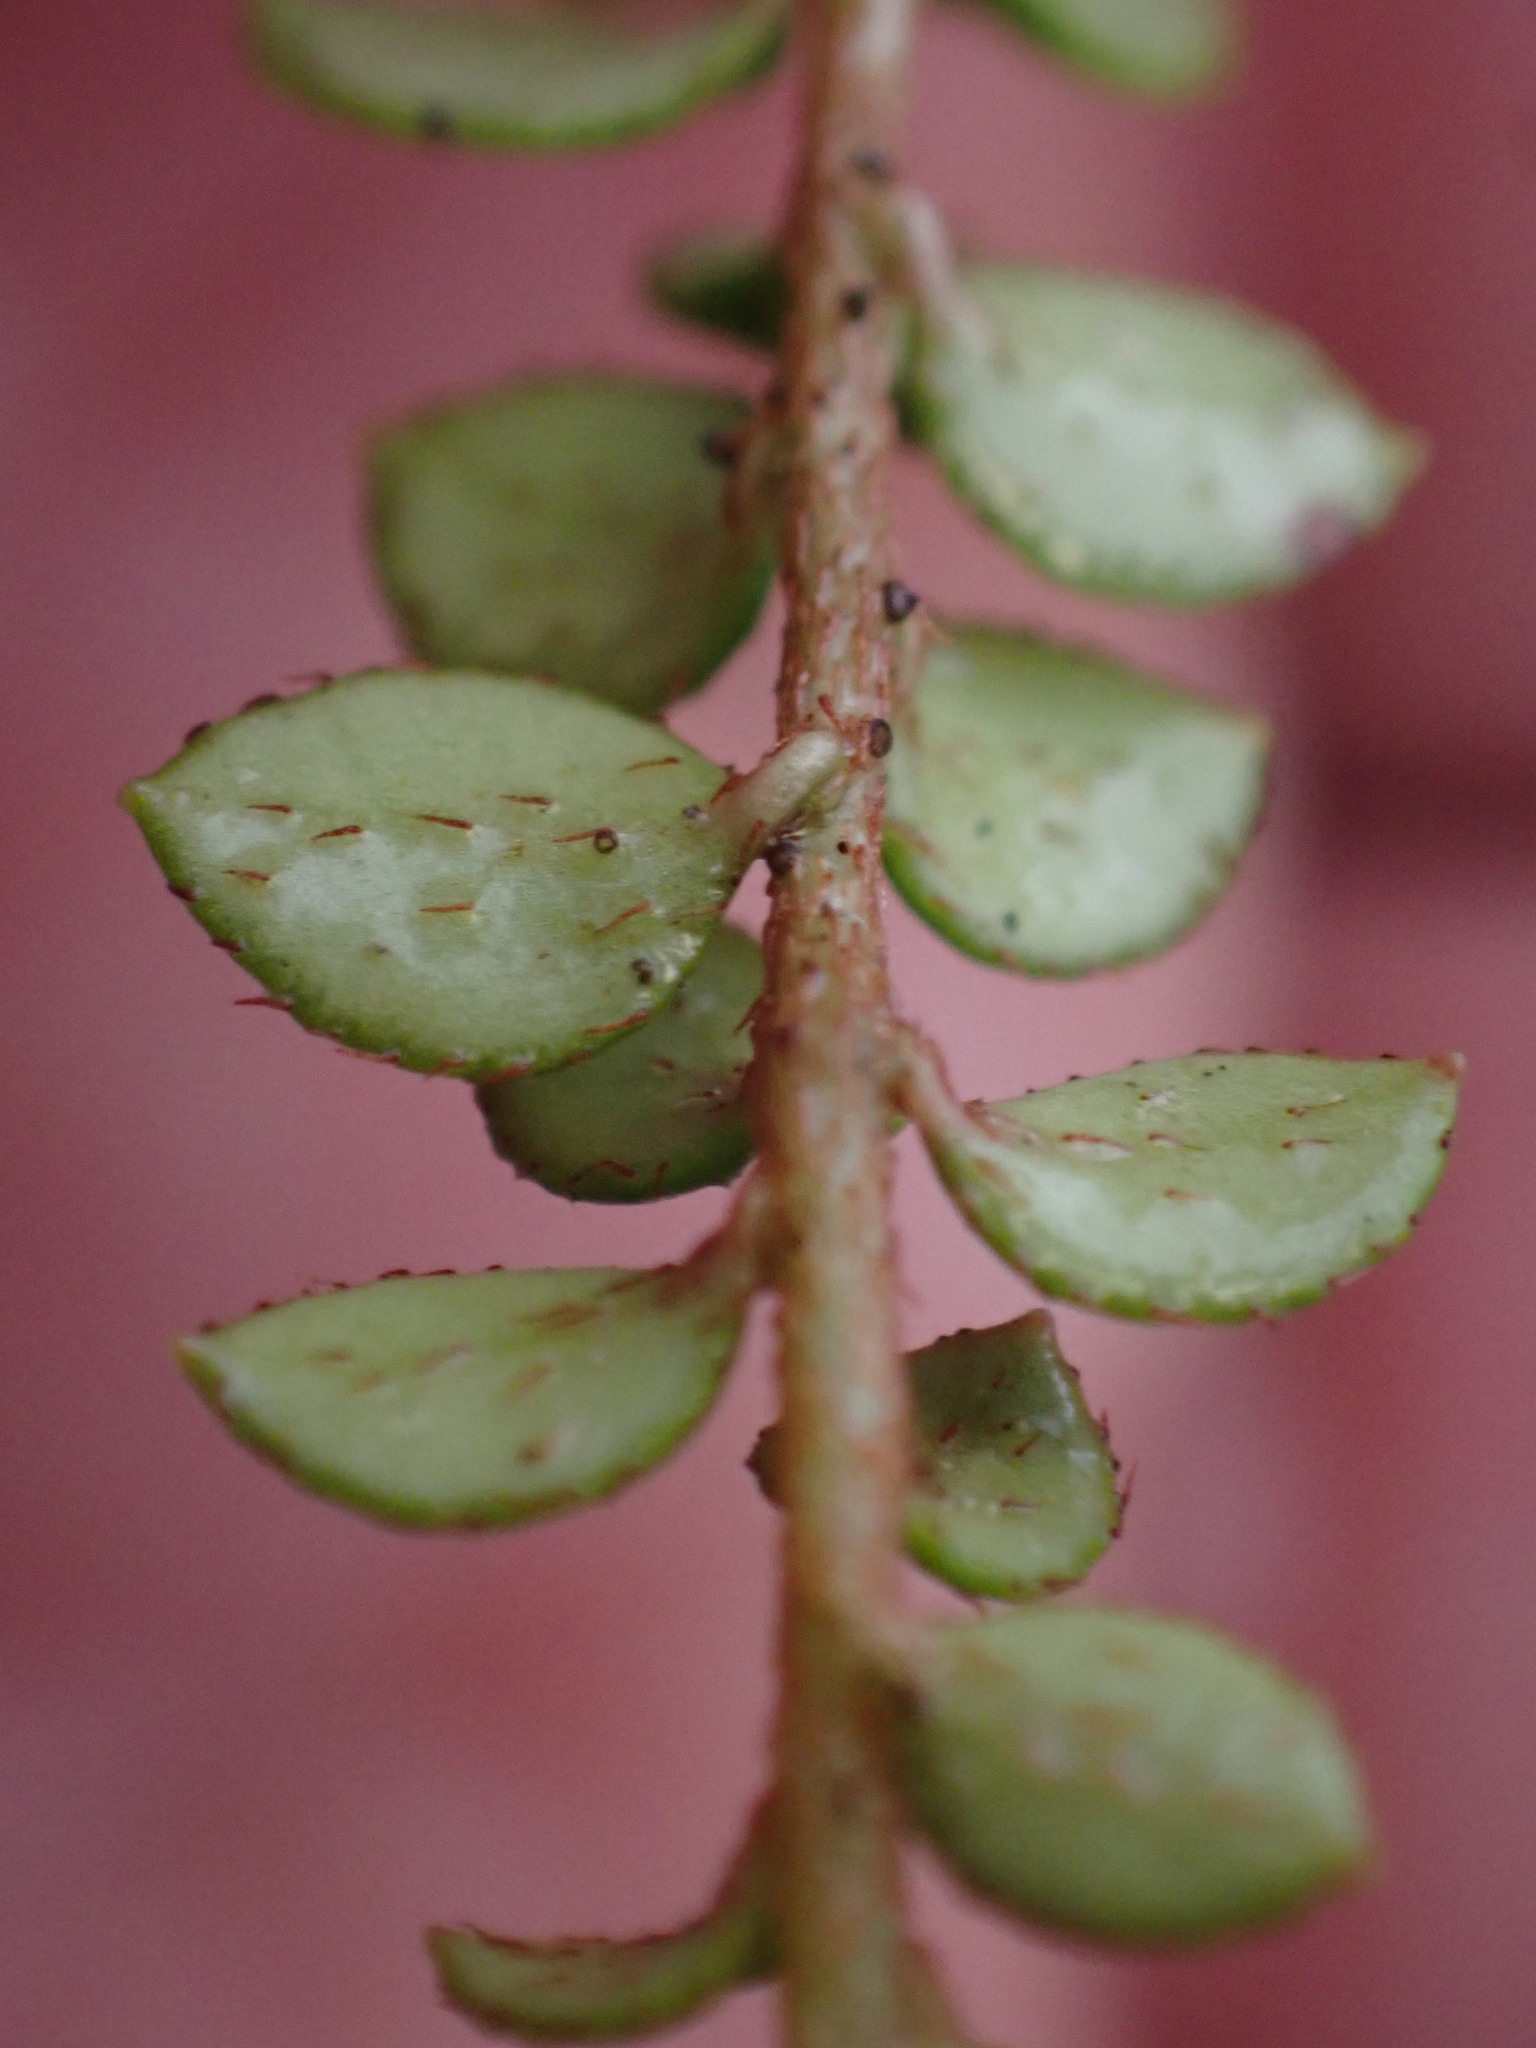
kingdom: Plantae
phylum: Tracheophyta
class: Magnoliopsida
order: Ericales
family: Ericaceae
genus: Gaultheria
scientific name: Gaultheria hispidula
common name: Cancer wintergreen
